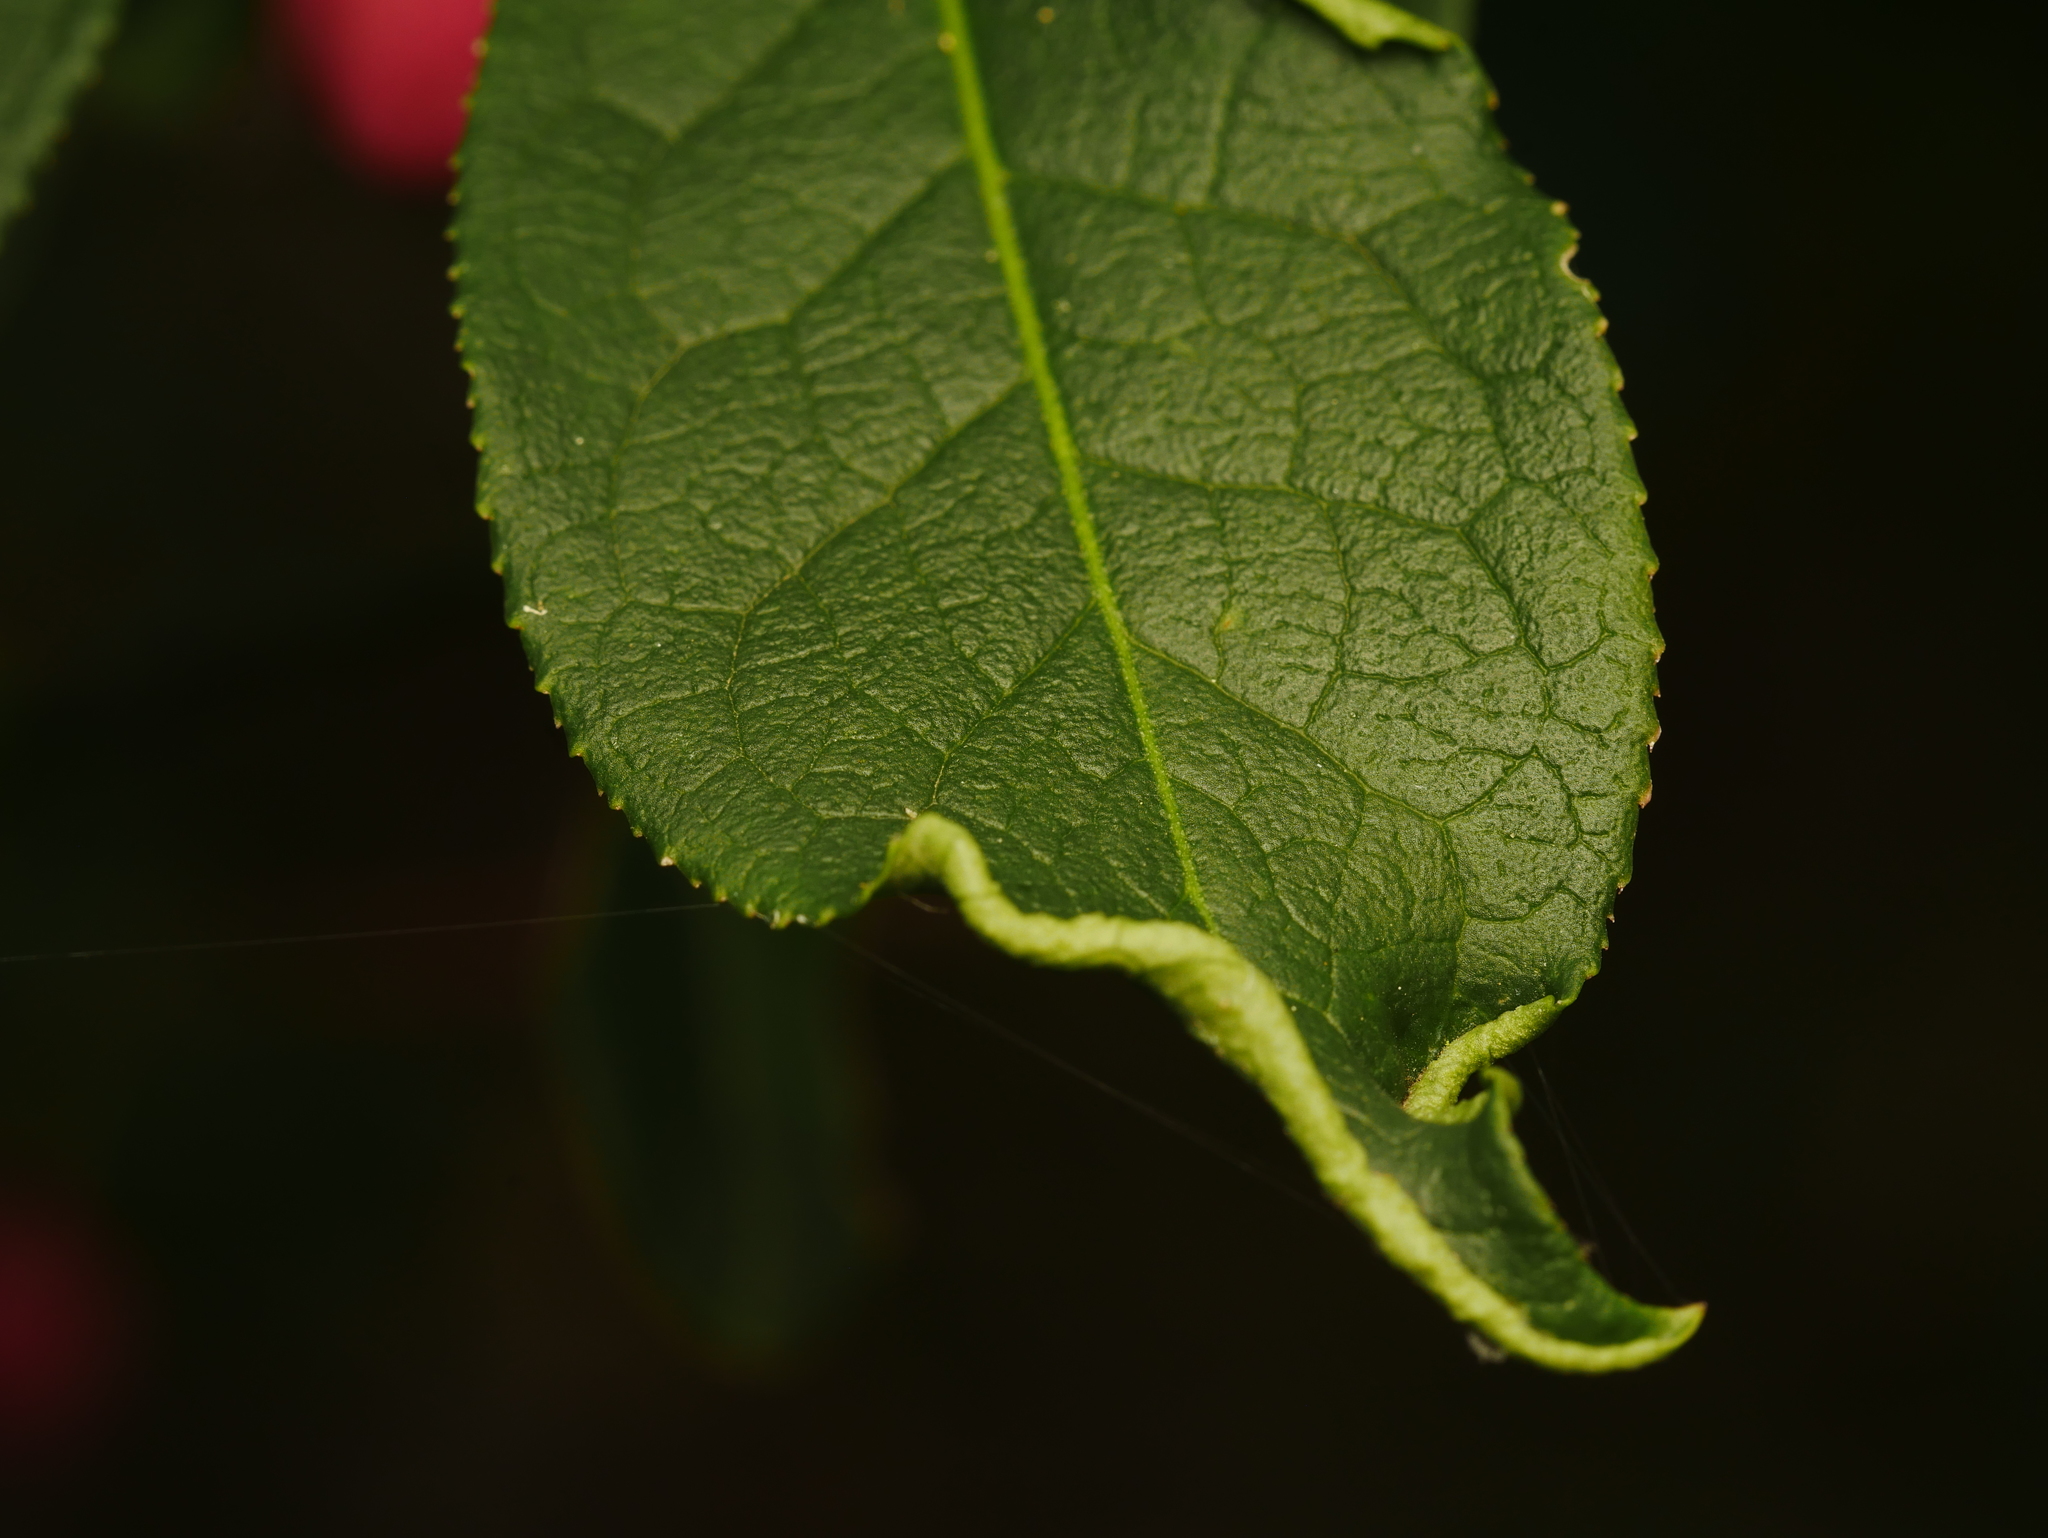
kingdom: Animalia
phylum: Arthropoda
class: Arachnida
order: Trombidiformes
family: Eriophyidae
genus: Stenacis
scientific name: Stenacis evonymi
